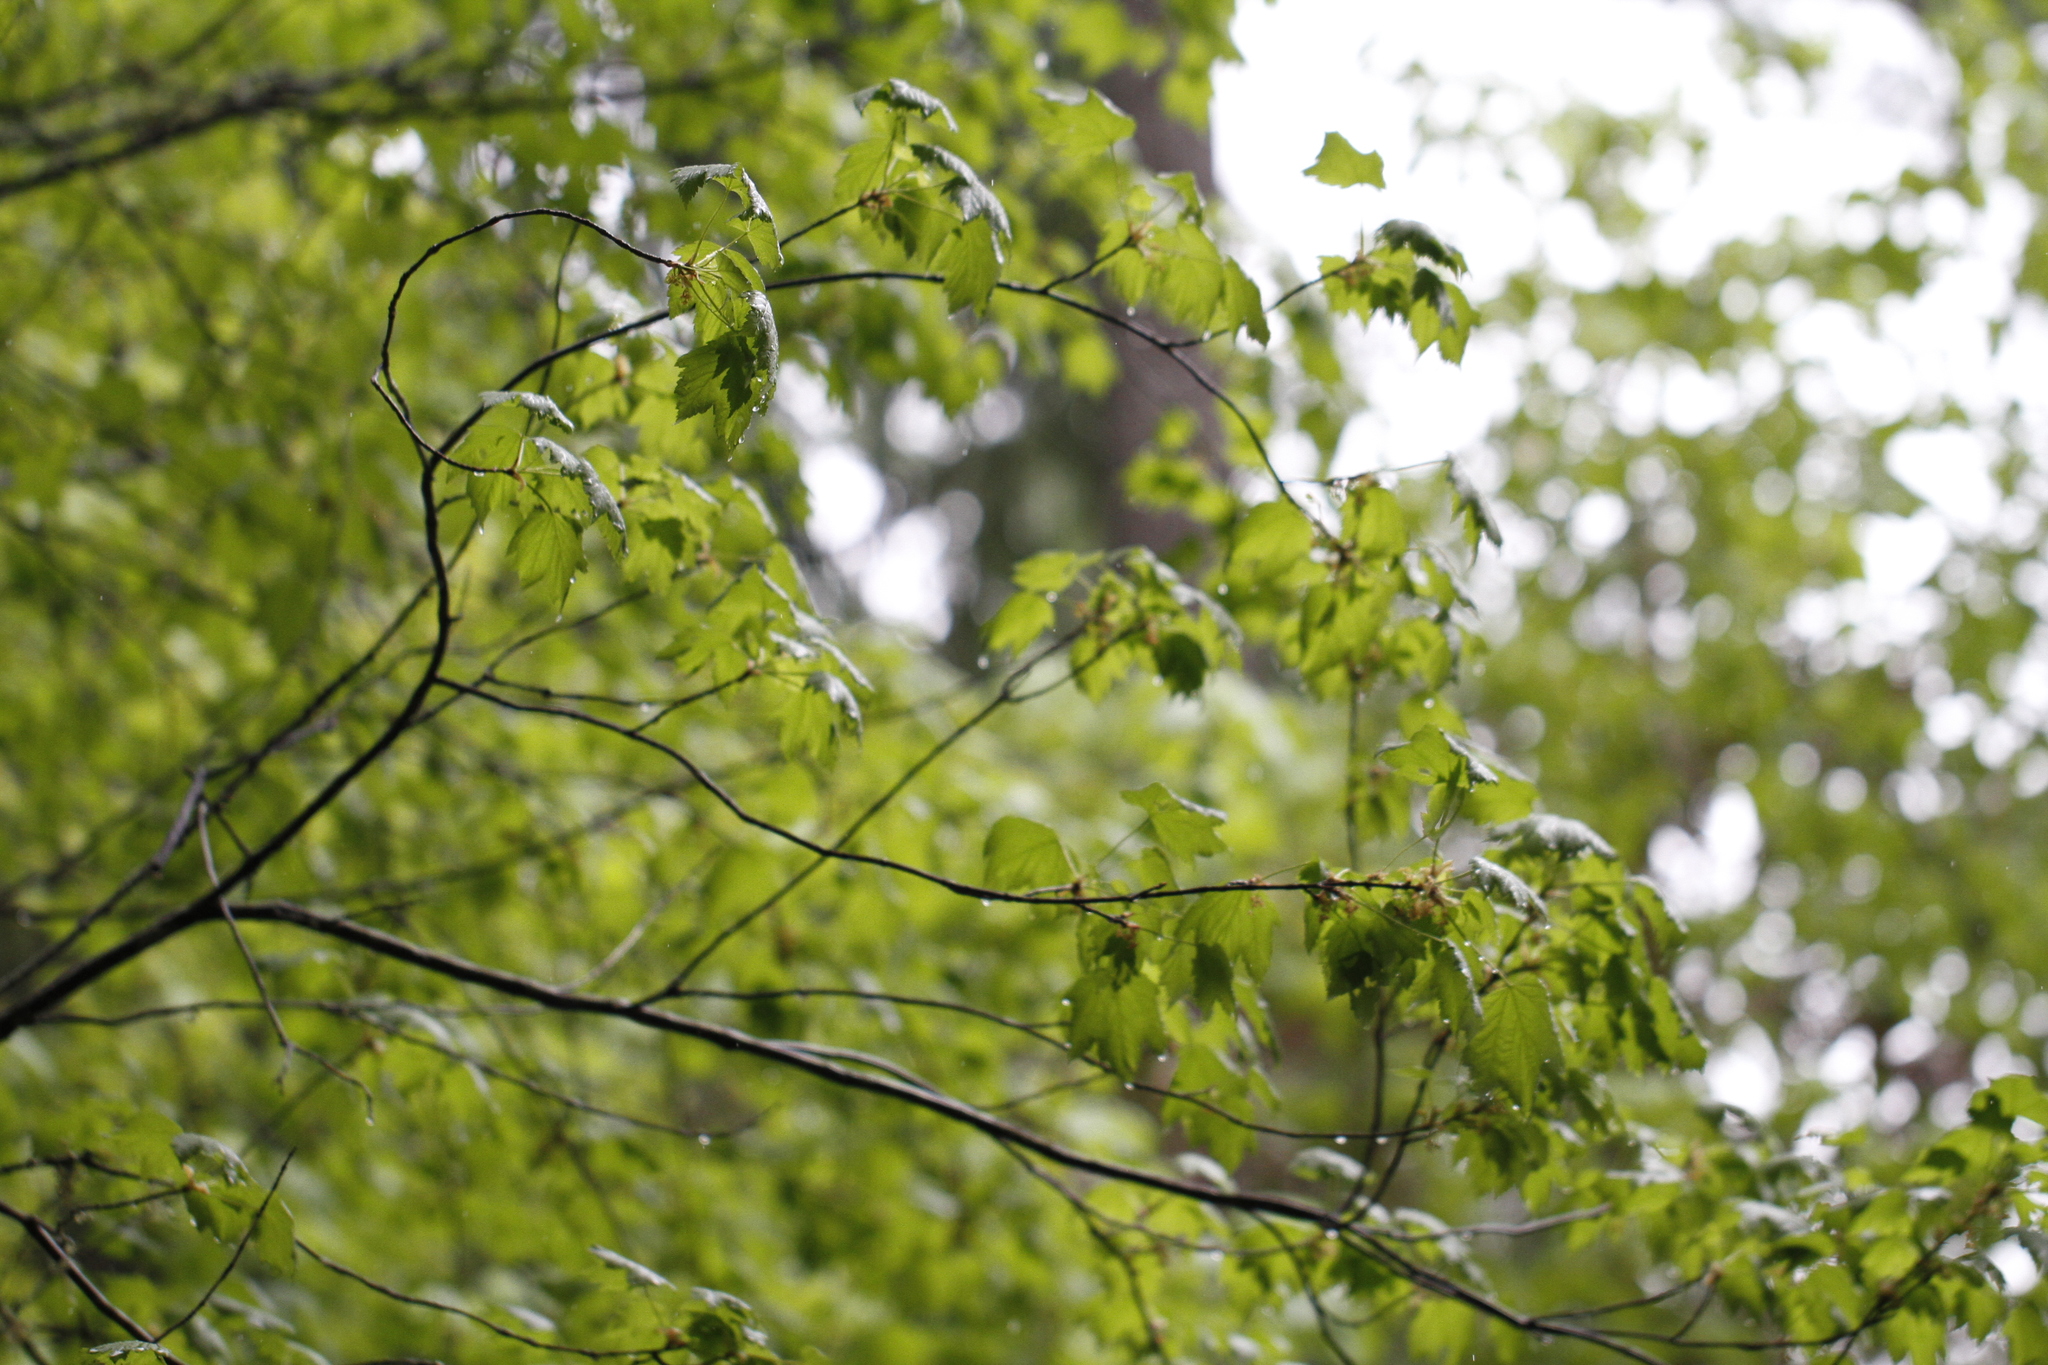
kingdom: Plantae
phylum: Tracheophyta
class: Magnoliopsida
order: Sapindales
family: Sapindaceae
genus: Acer
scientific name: Acer glabrum
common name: Rocky mountain maple
